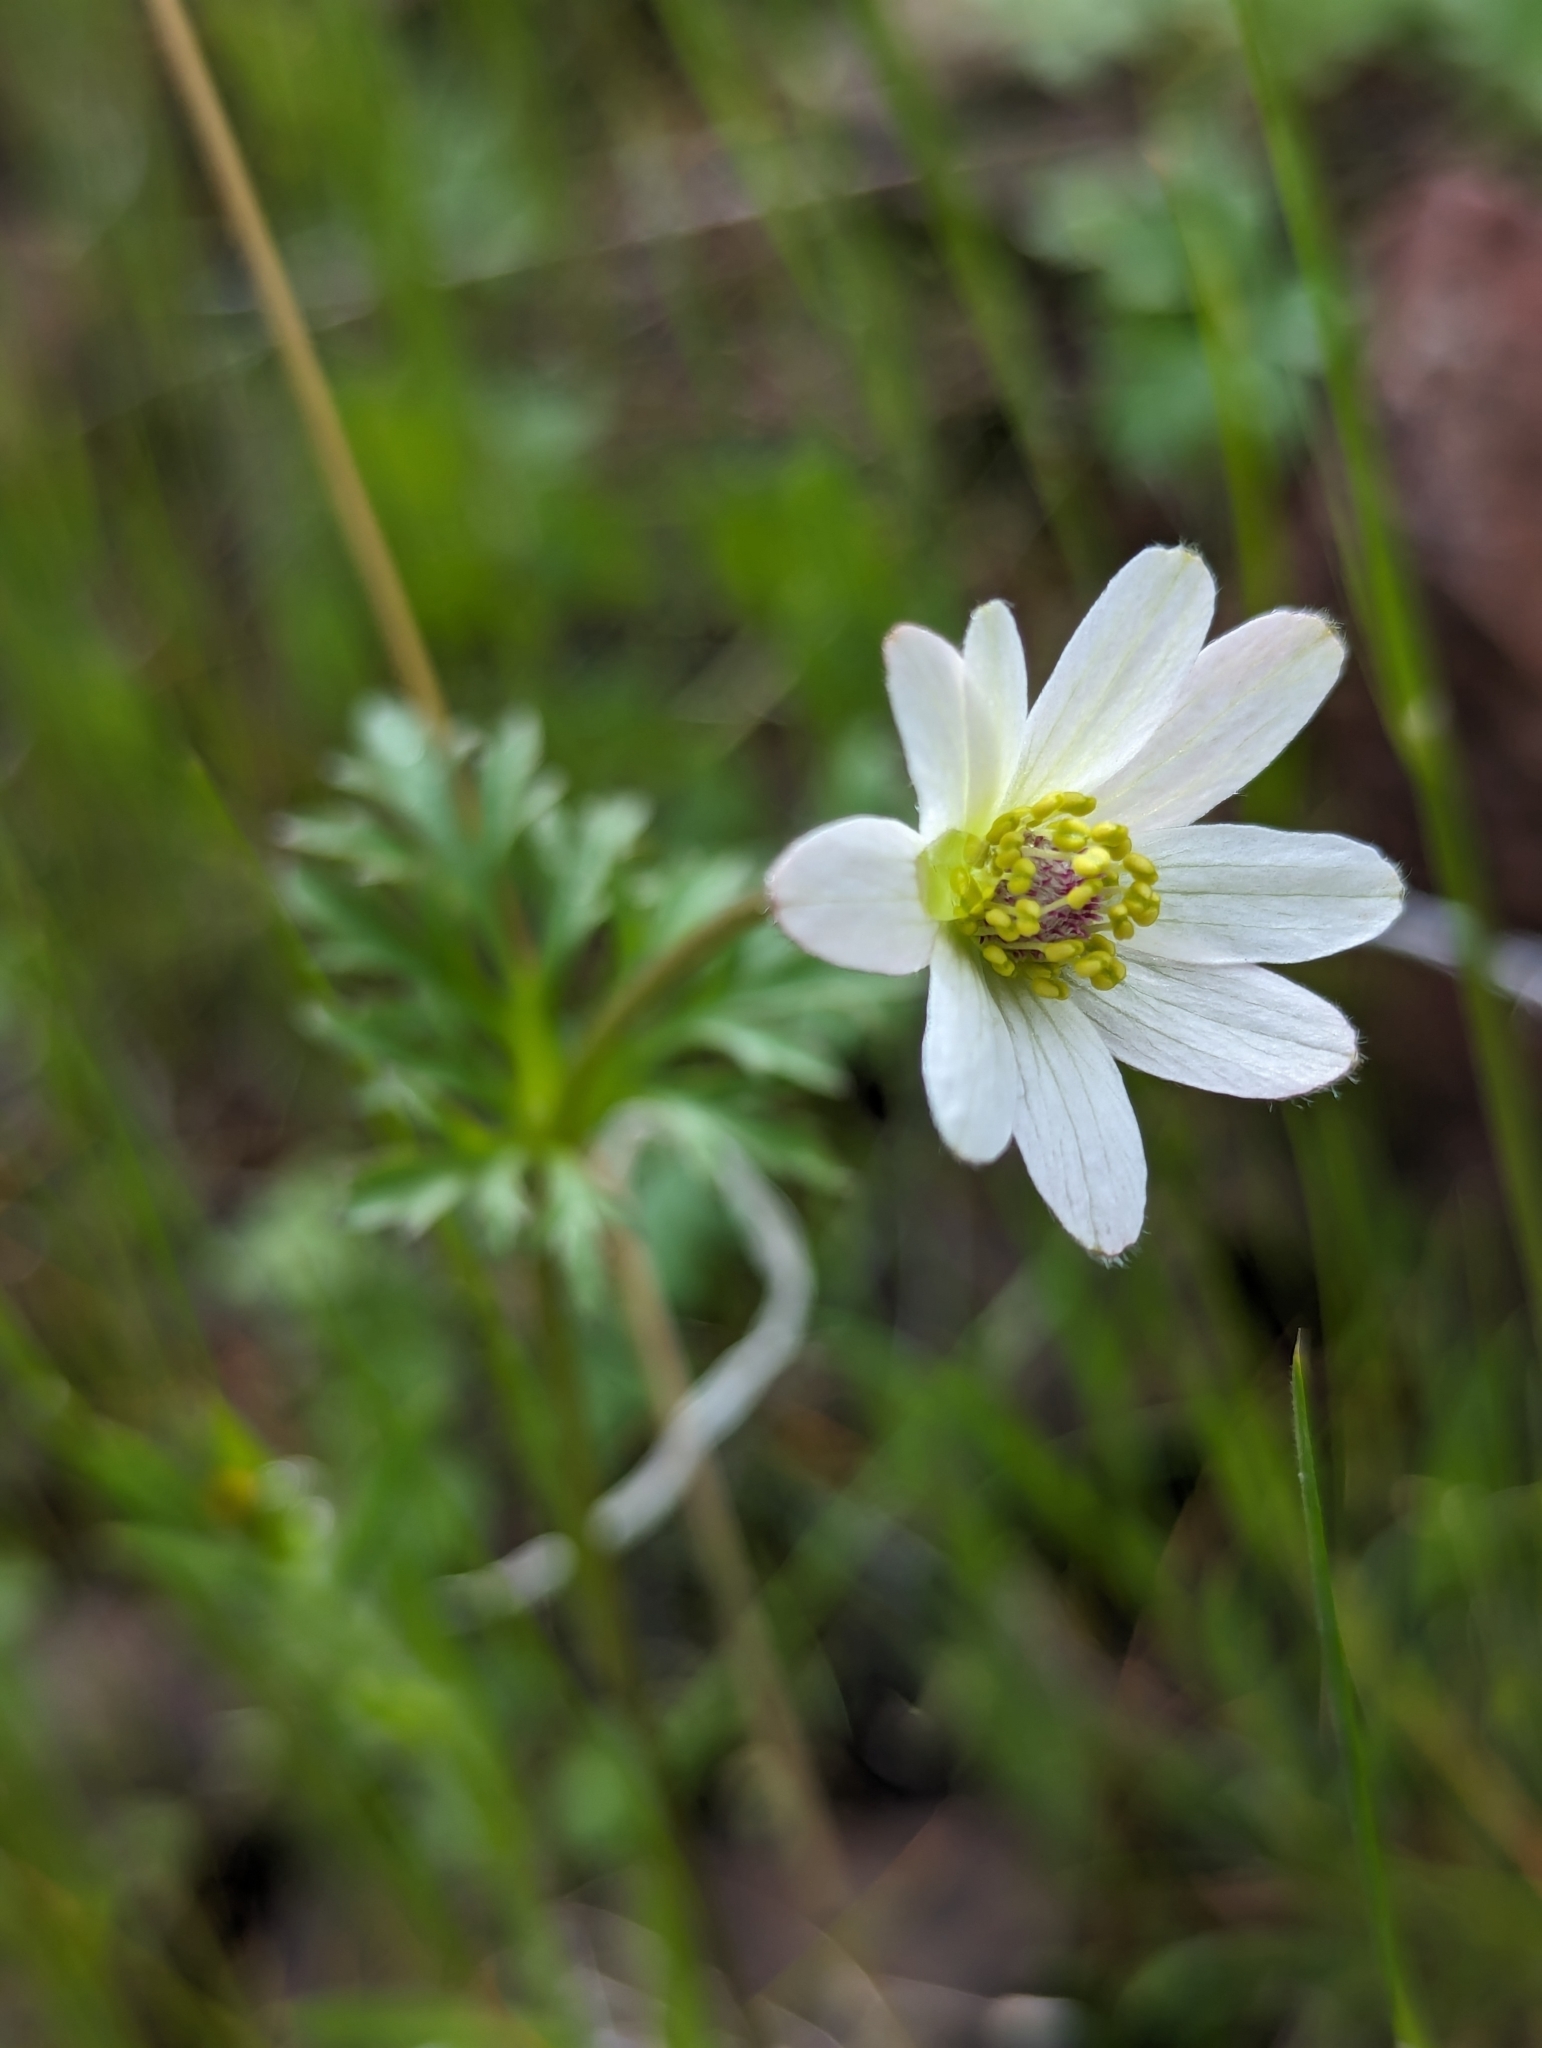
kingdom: Plantae
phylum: Tracheophyta
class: Magnoliopsida
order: Ranunculales
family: Ranunculaceae
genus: Anemone
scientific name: Anemone tuberosa
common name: Desert anemone
